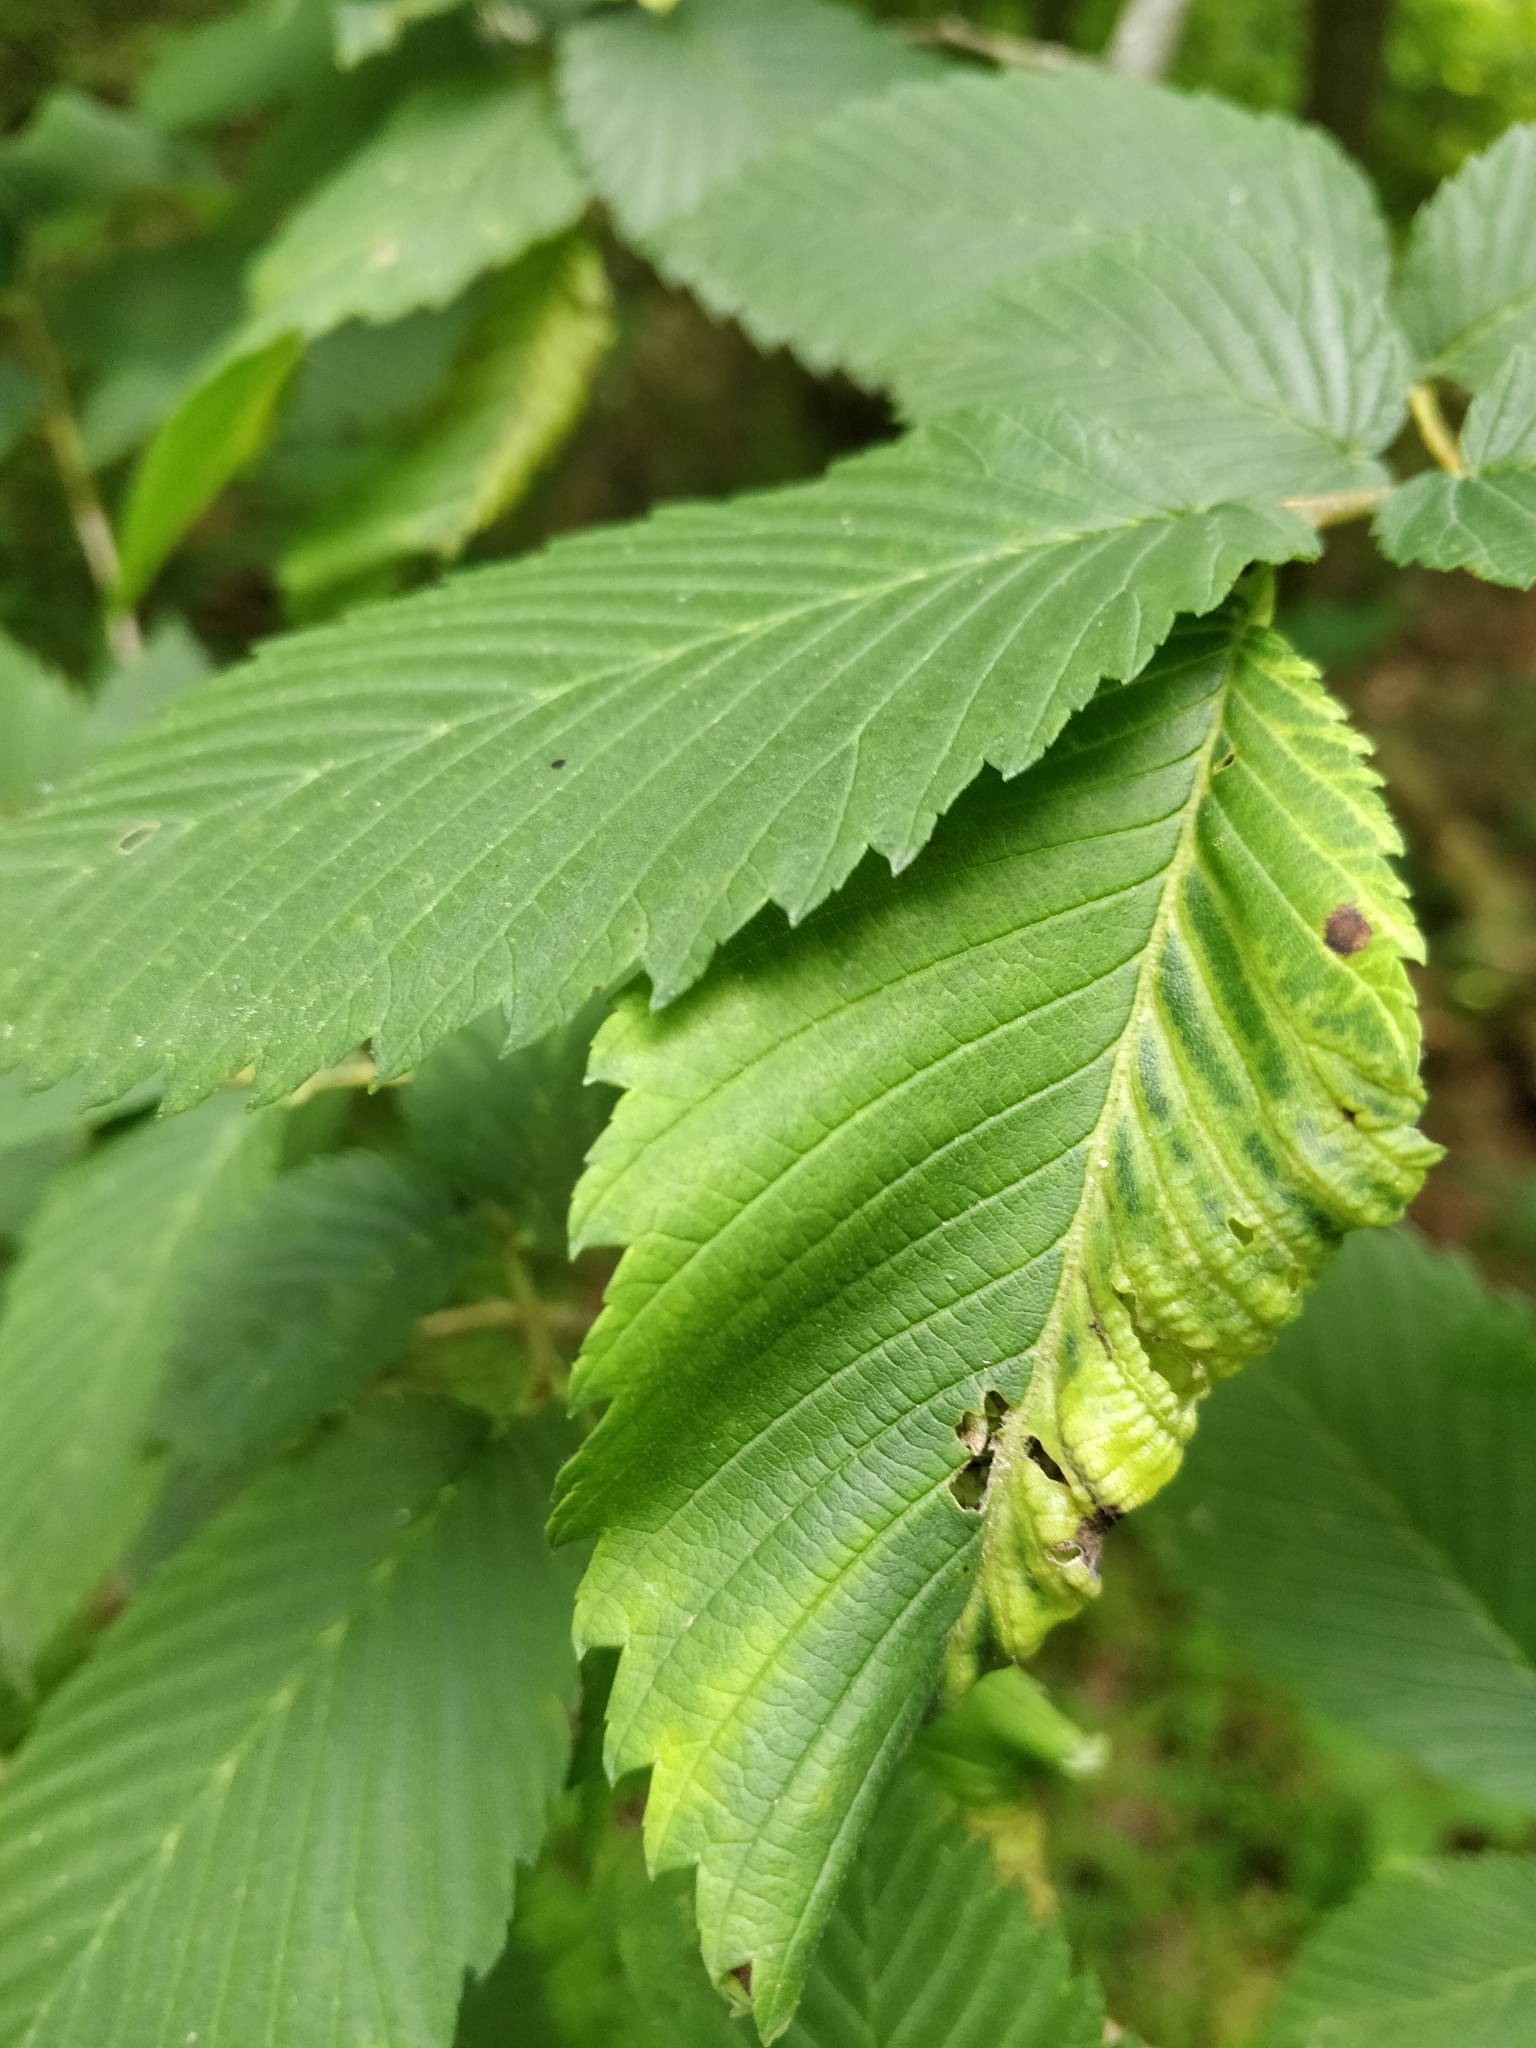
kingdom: Animalia
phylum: Arthropoda
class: Insecta
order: Hemiptera
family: Aphididae
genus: Eriosoma
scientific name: Eriosoma americanum
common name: Woolly elm aphid
